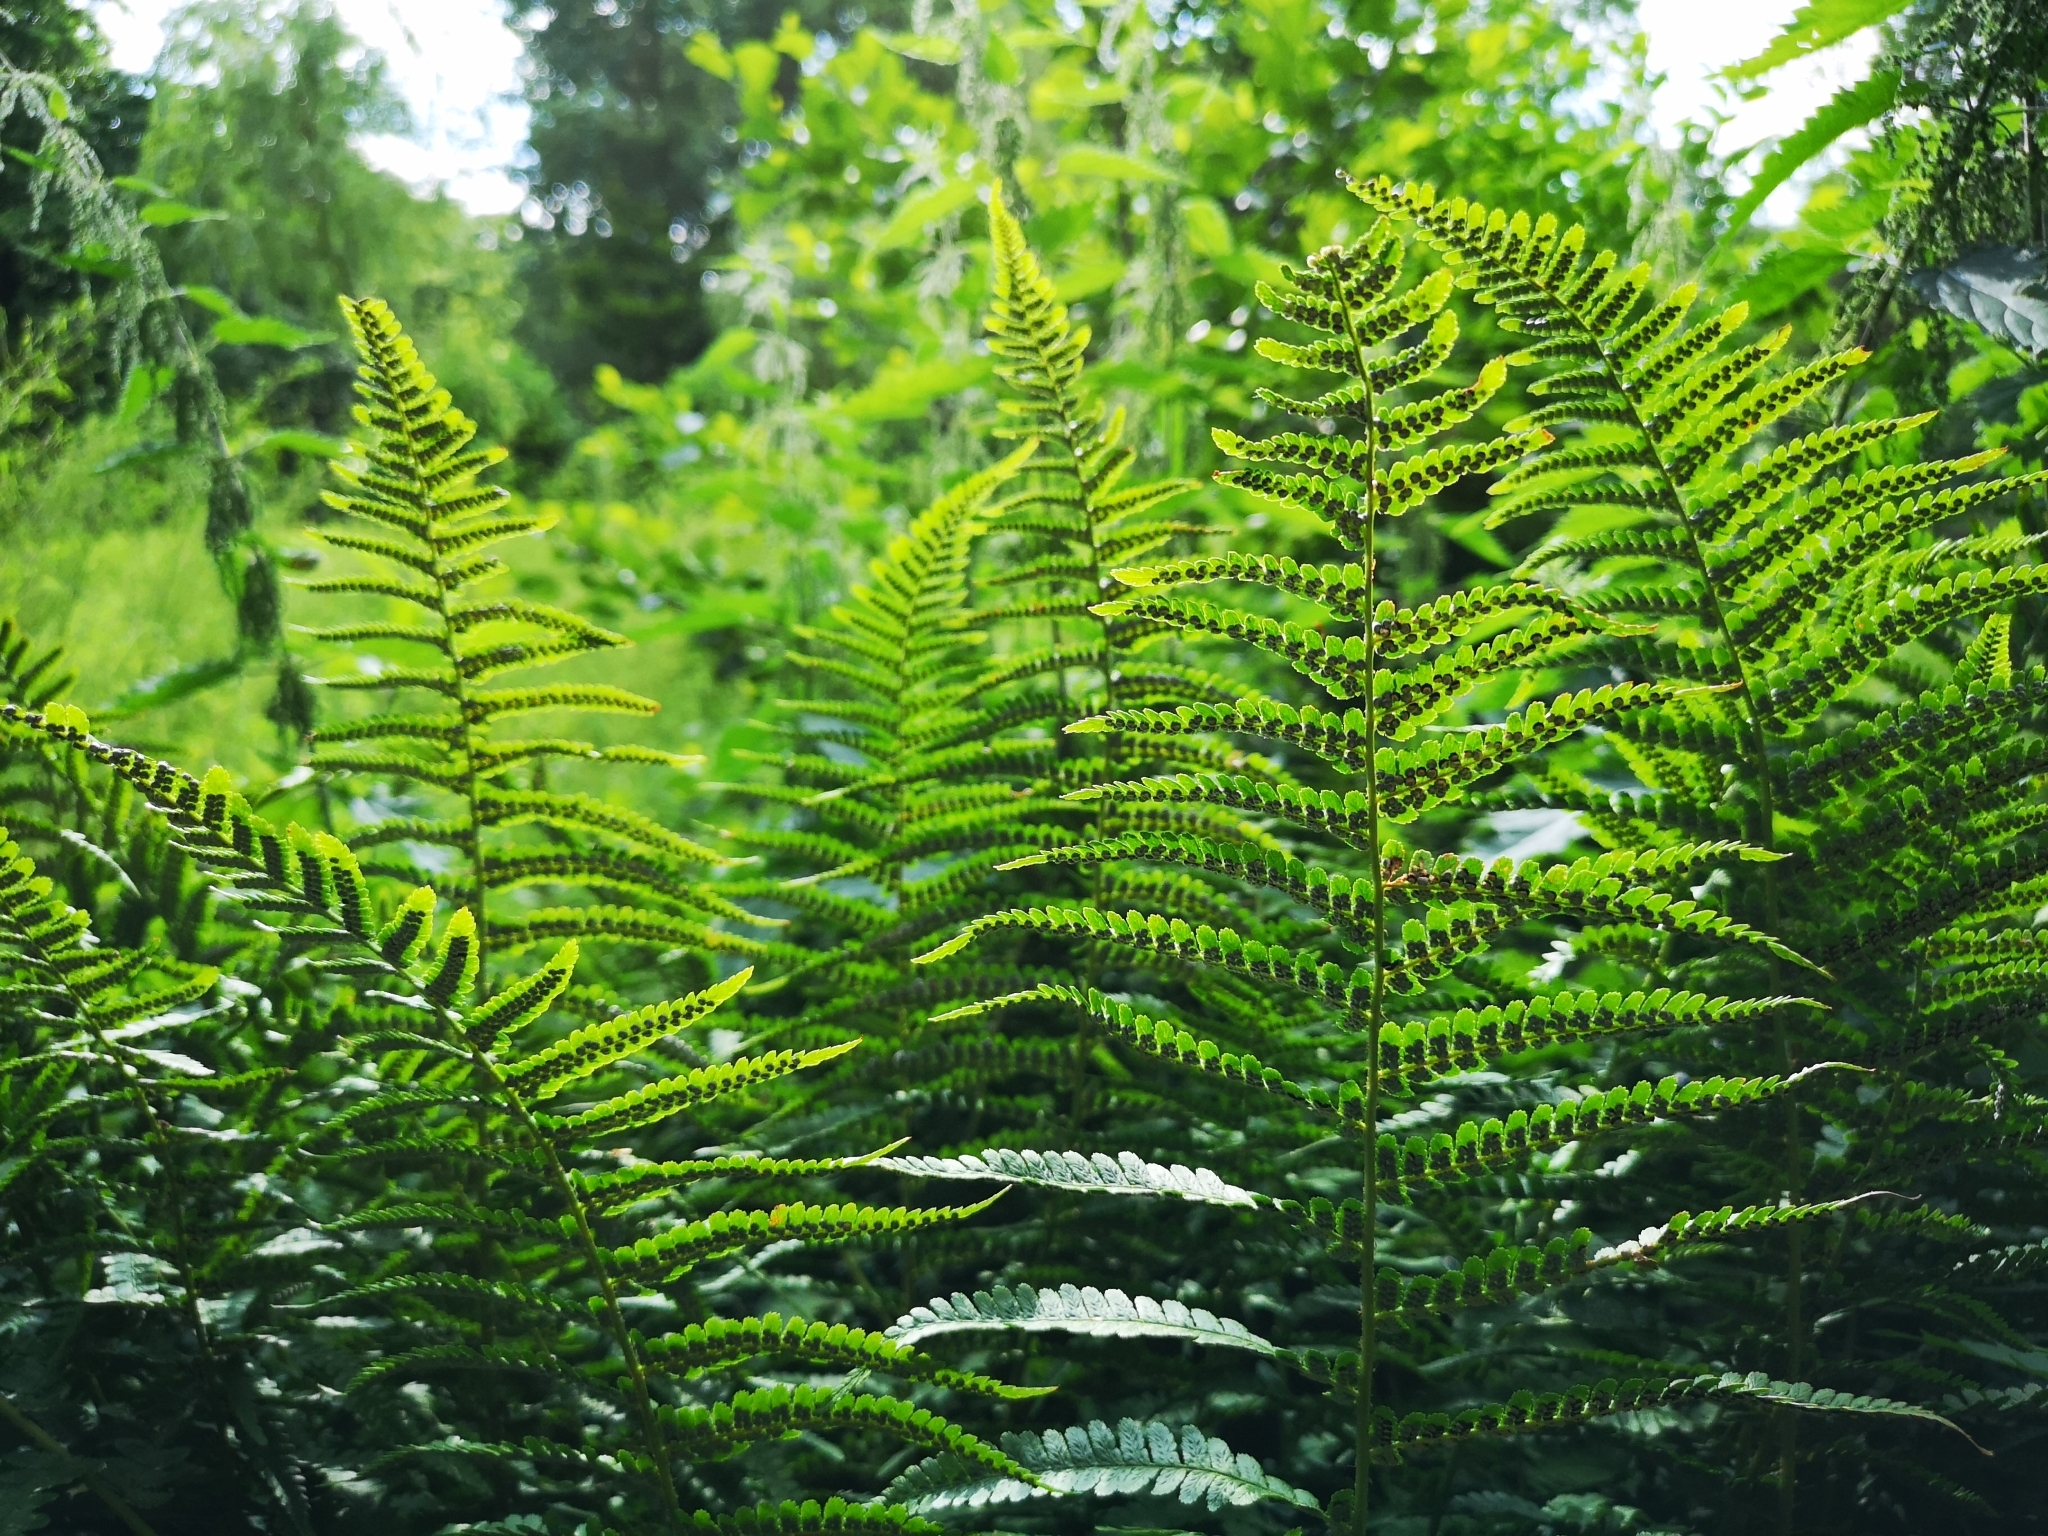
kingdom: Plantae
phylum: Tracheophyta
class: Polypodiopsida
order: Polypodiales
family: Dryopteridaceae
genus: Dryopteris
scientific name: Dryopteris filix-mas
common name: Male fern
